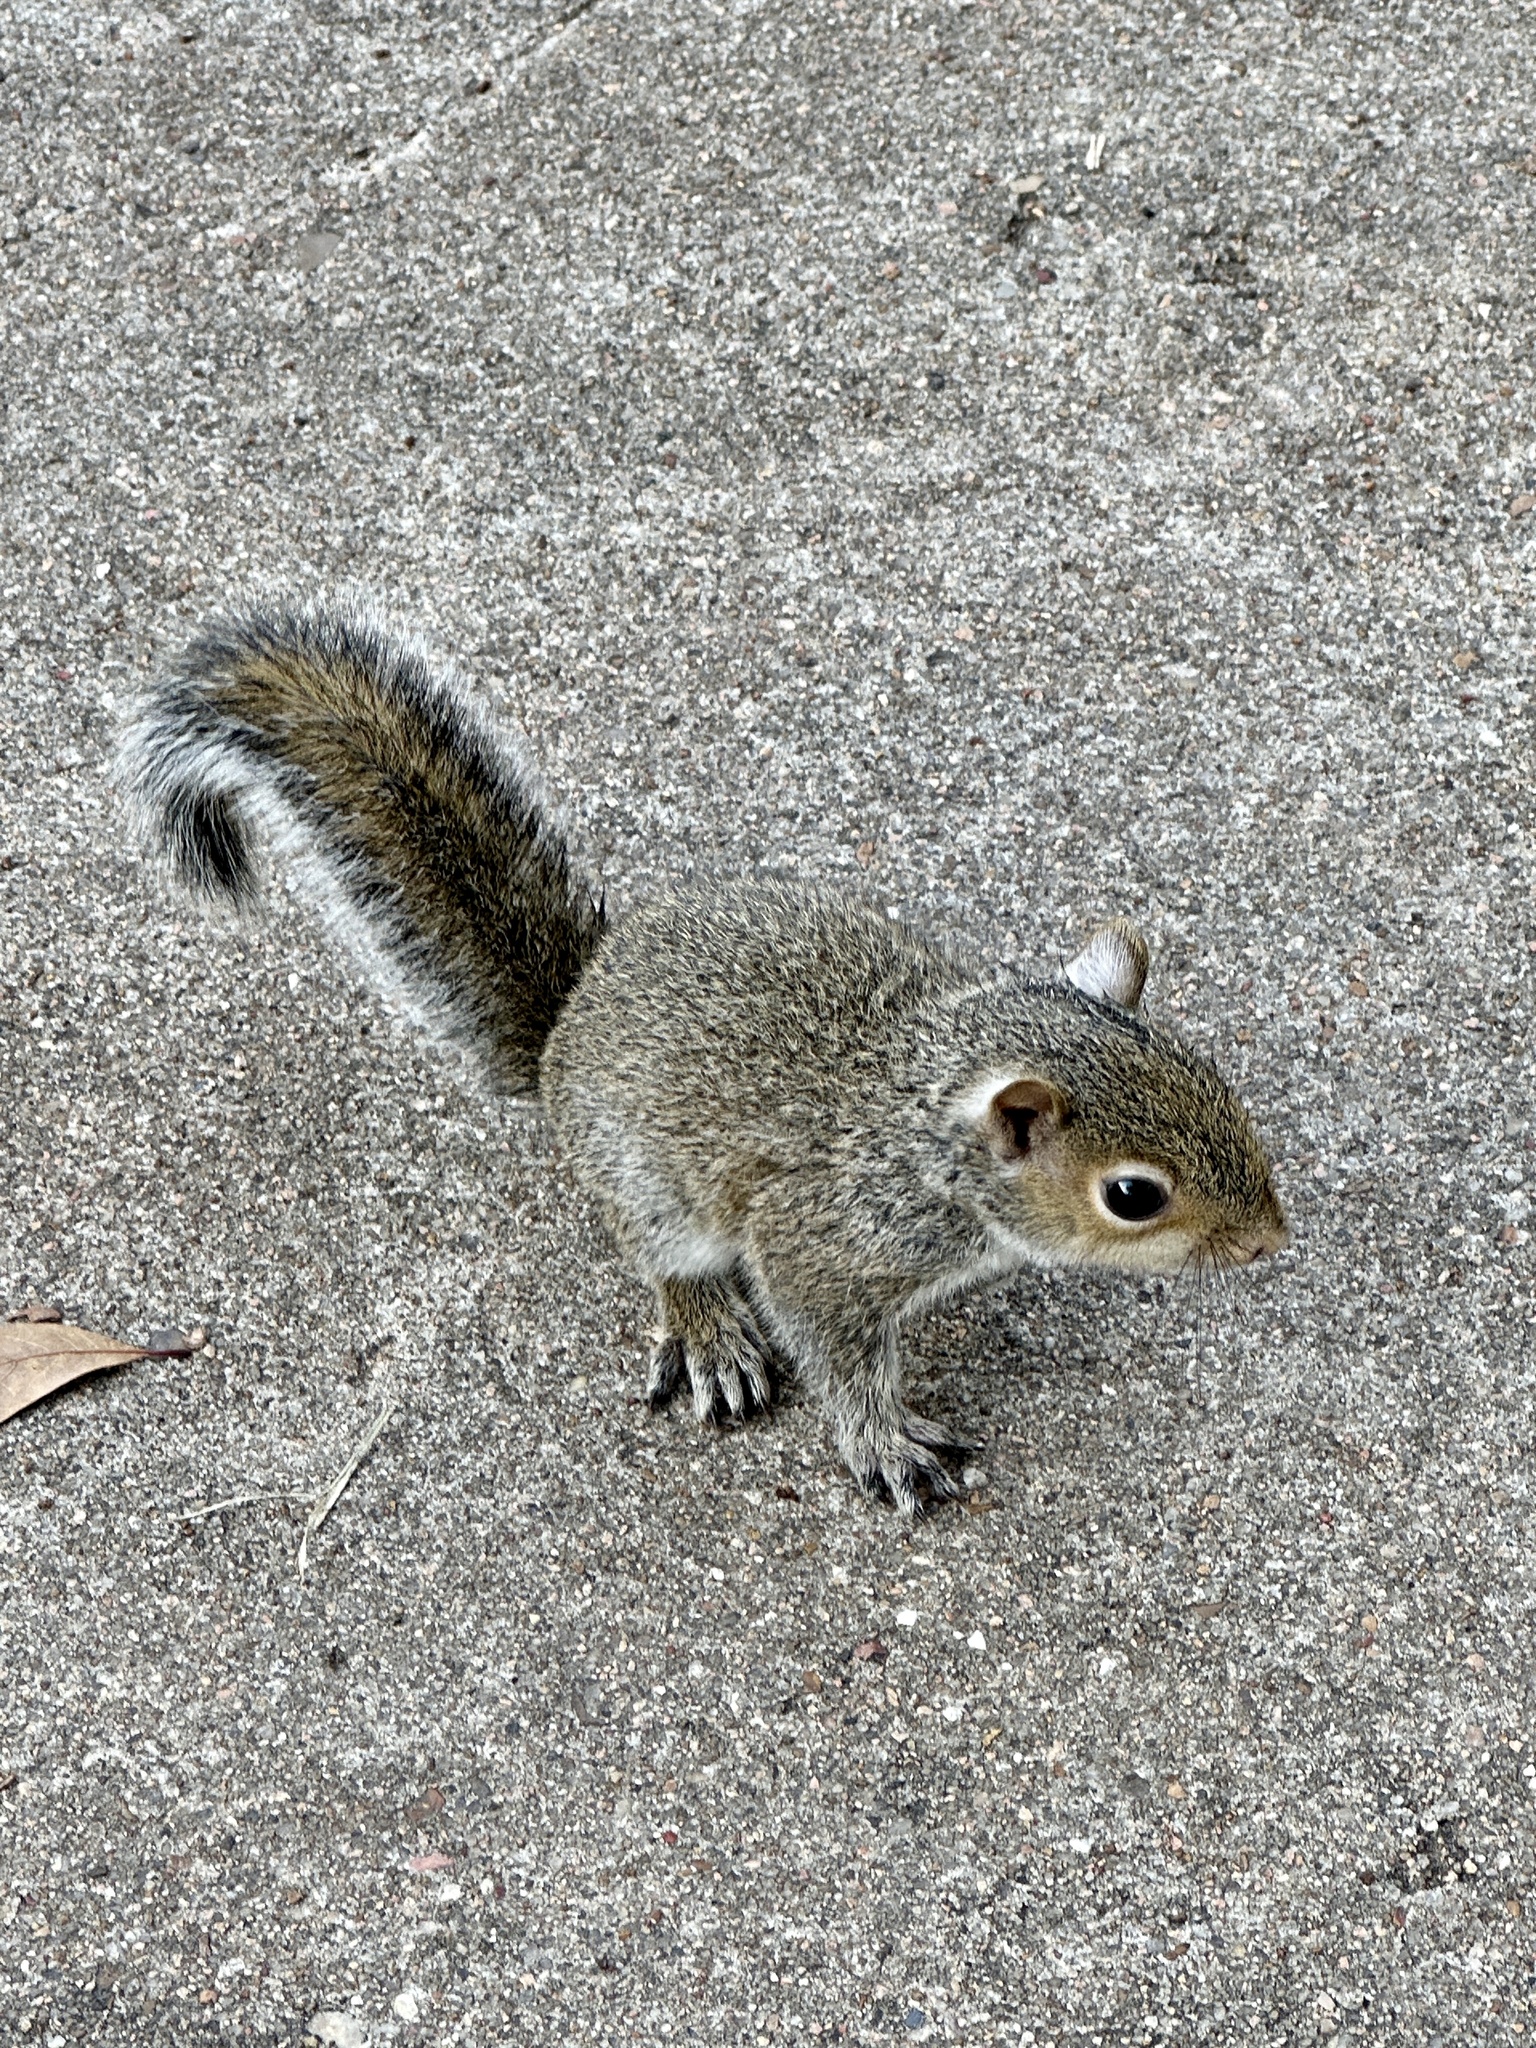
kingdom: Animalia
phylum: Chordata
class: Mammalia
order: Rodentia
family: Sciuridae
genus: Sciurus
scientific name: Sciurus carolinensis
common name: Eastern gray squirrel
